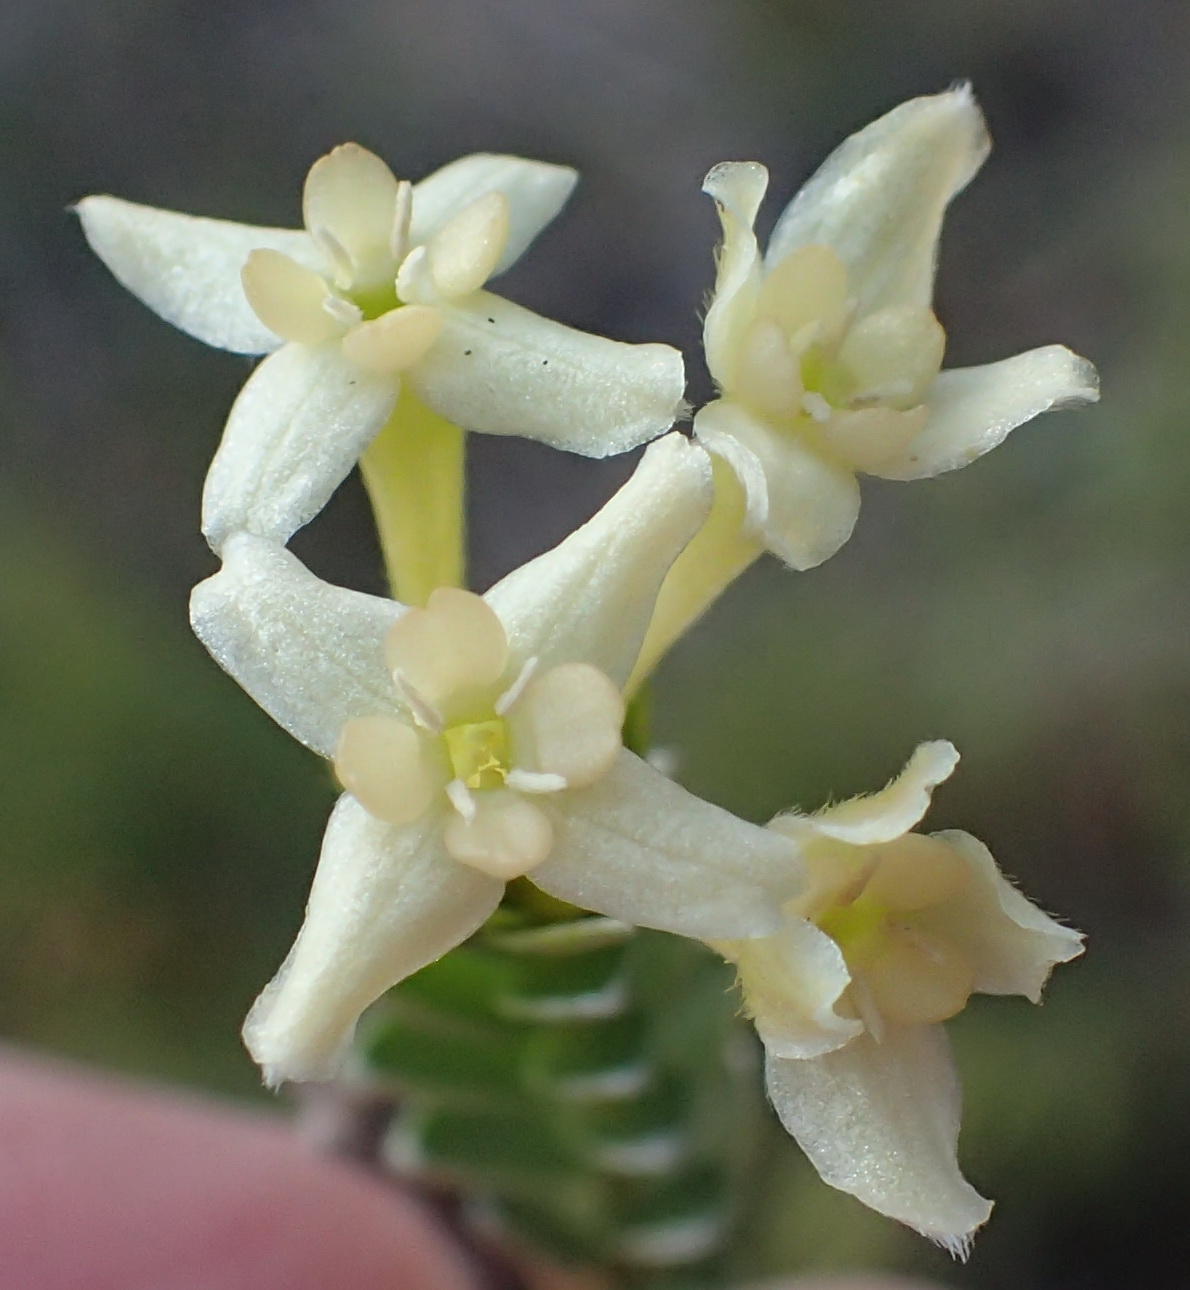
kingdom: Plantae
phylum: Tracheophyta
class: Magnoliopsida
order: Malvales
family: Thymelaeaceae
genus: Gnidia
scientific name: Gnidia chrysophylla
